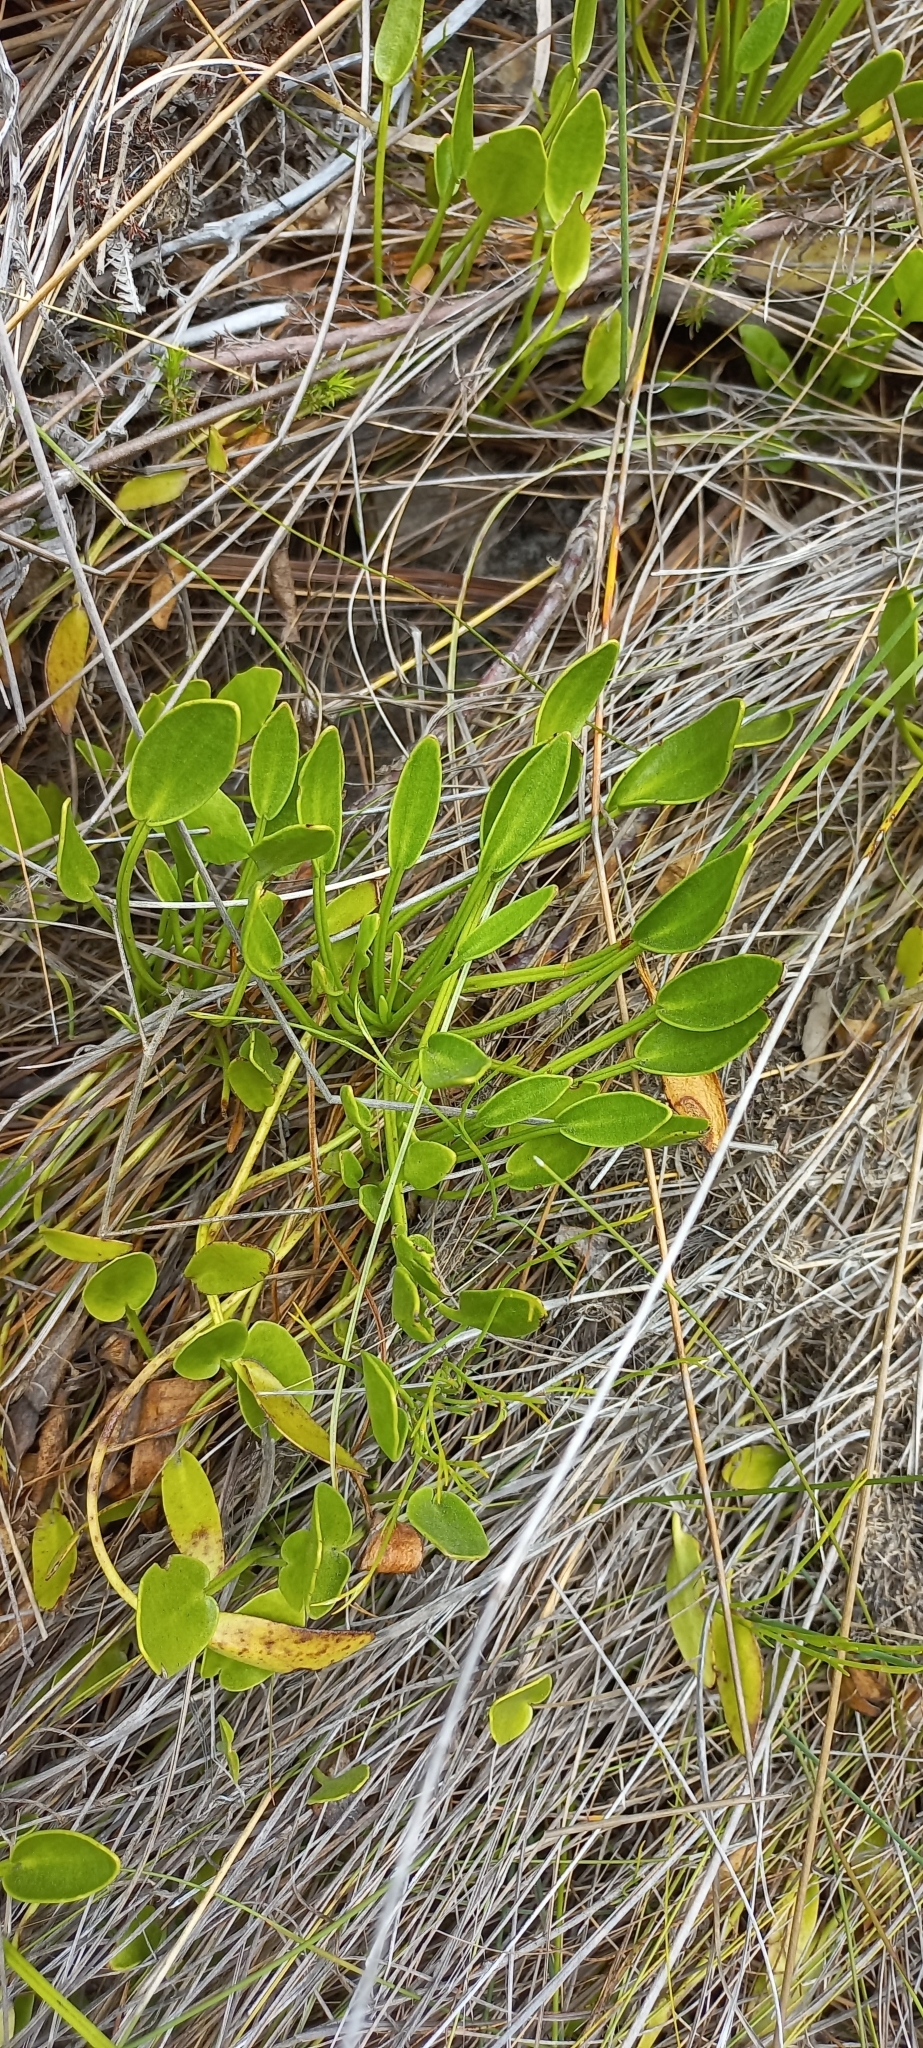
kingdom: Plantae
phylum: Tracheophyta
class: Magnoliopsida
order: Asterales
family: Menyanthaceae
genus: Villarsia
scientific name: Villarsia capensis
